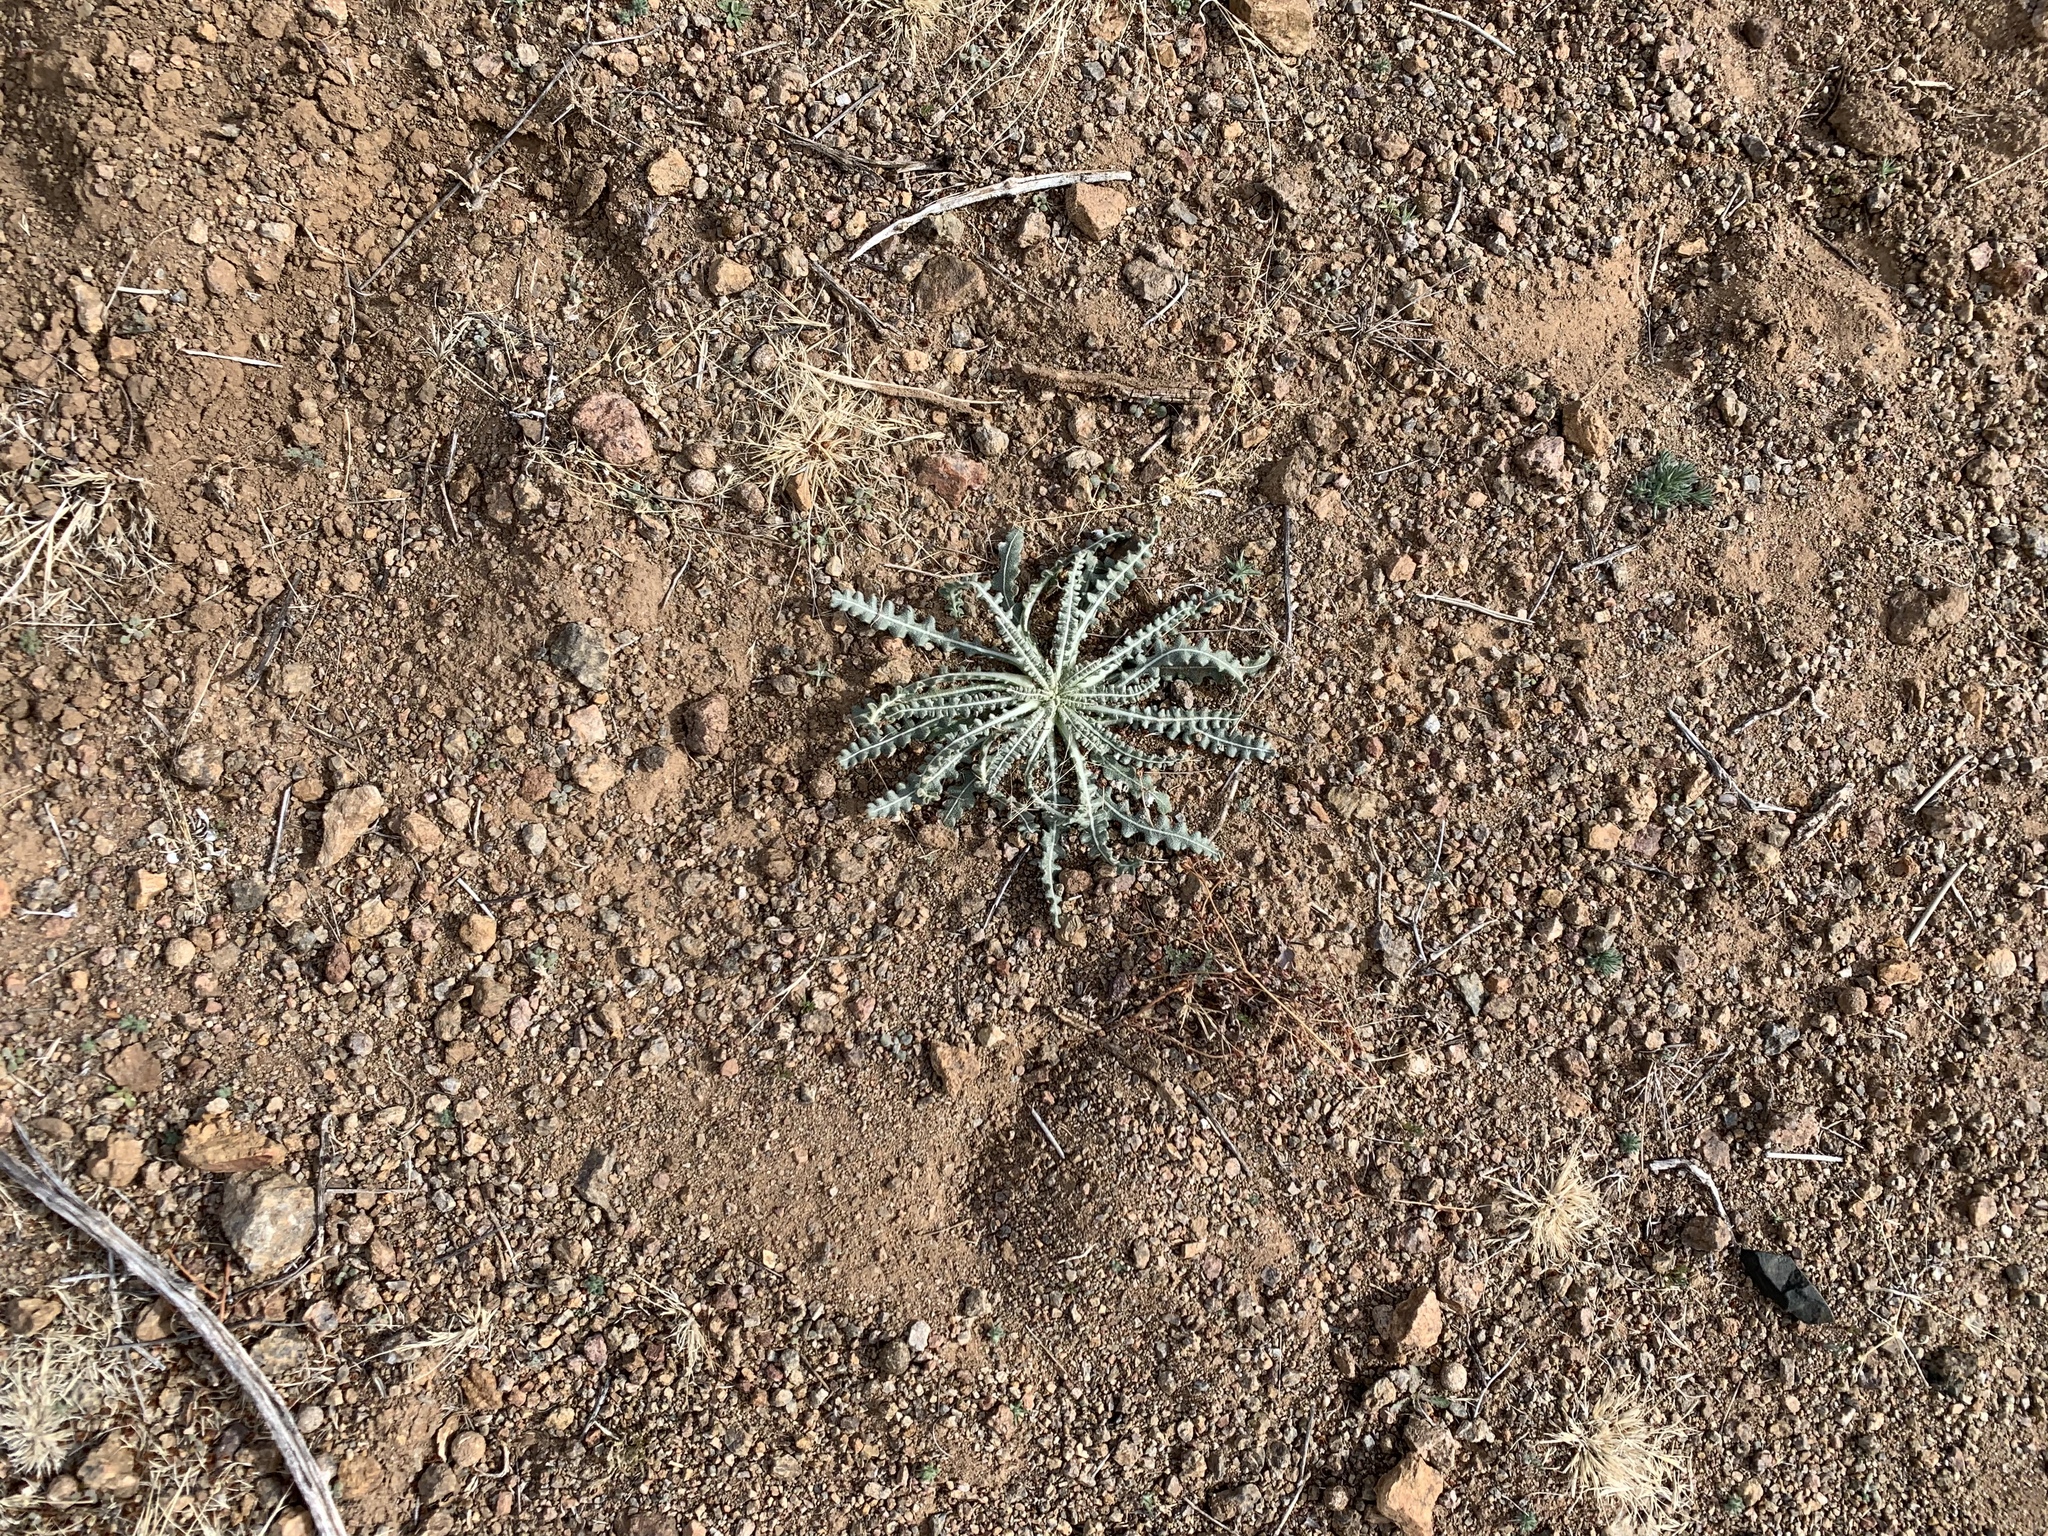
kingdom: Plantae
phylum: Tracheophyta
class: Magnoliopsida
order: Cornales
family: Loasaceae
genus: Mentzelia
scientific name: Mentzelia procera
